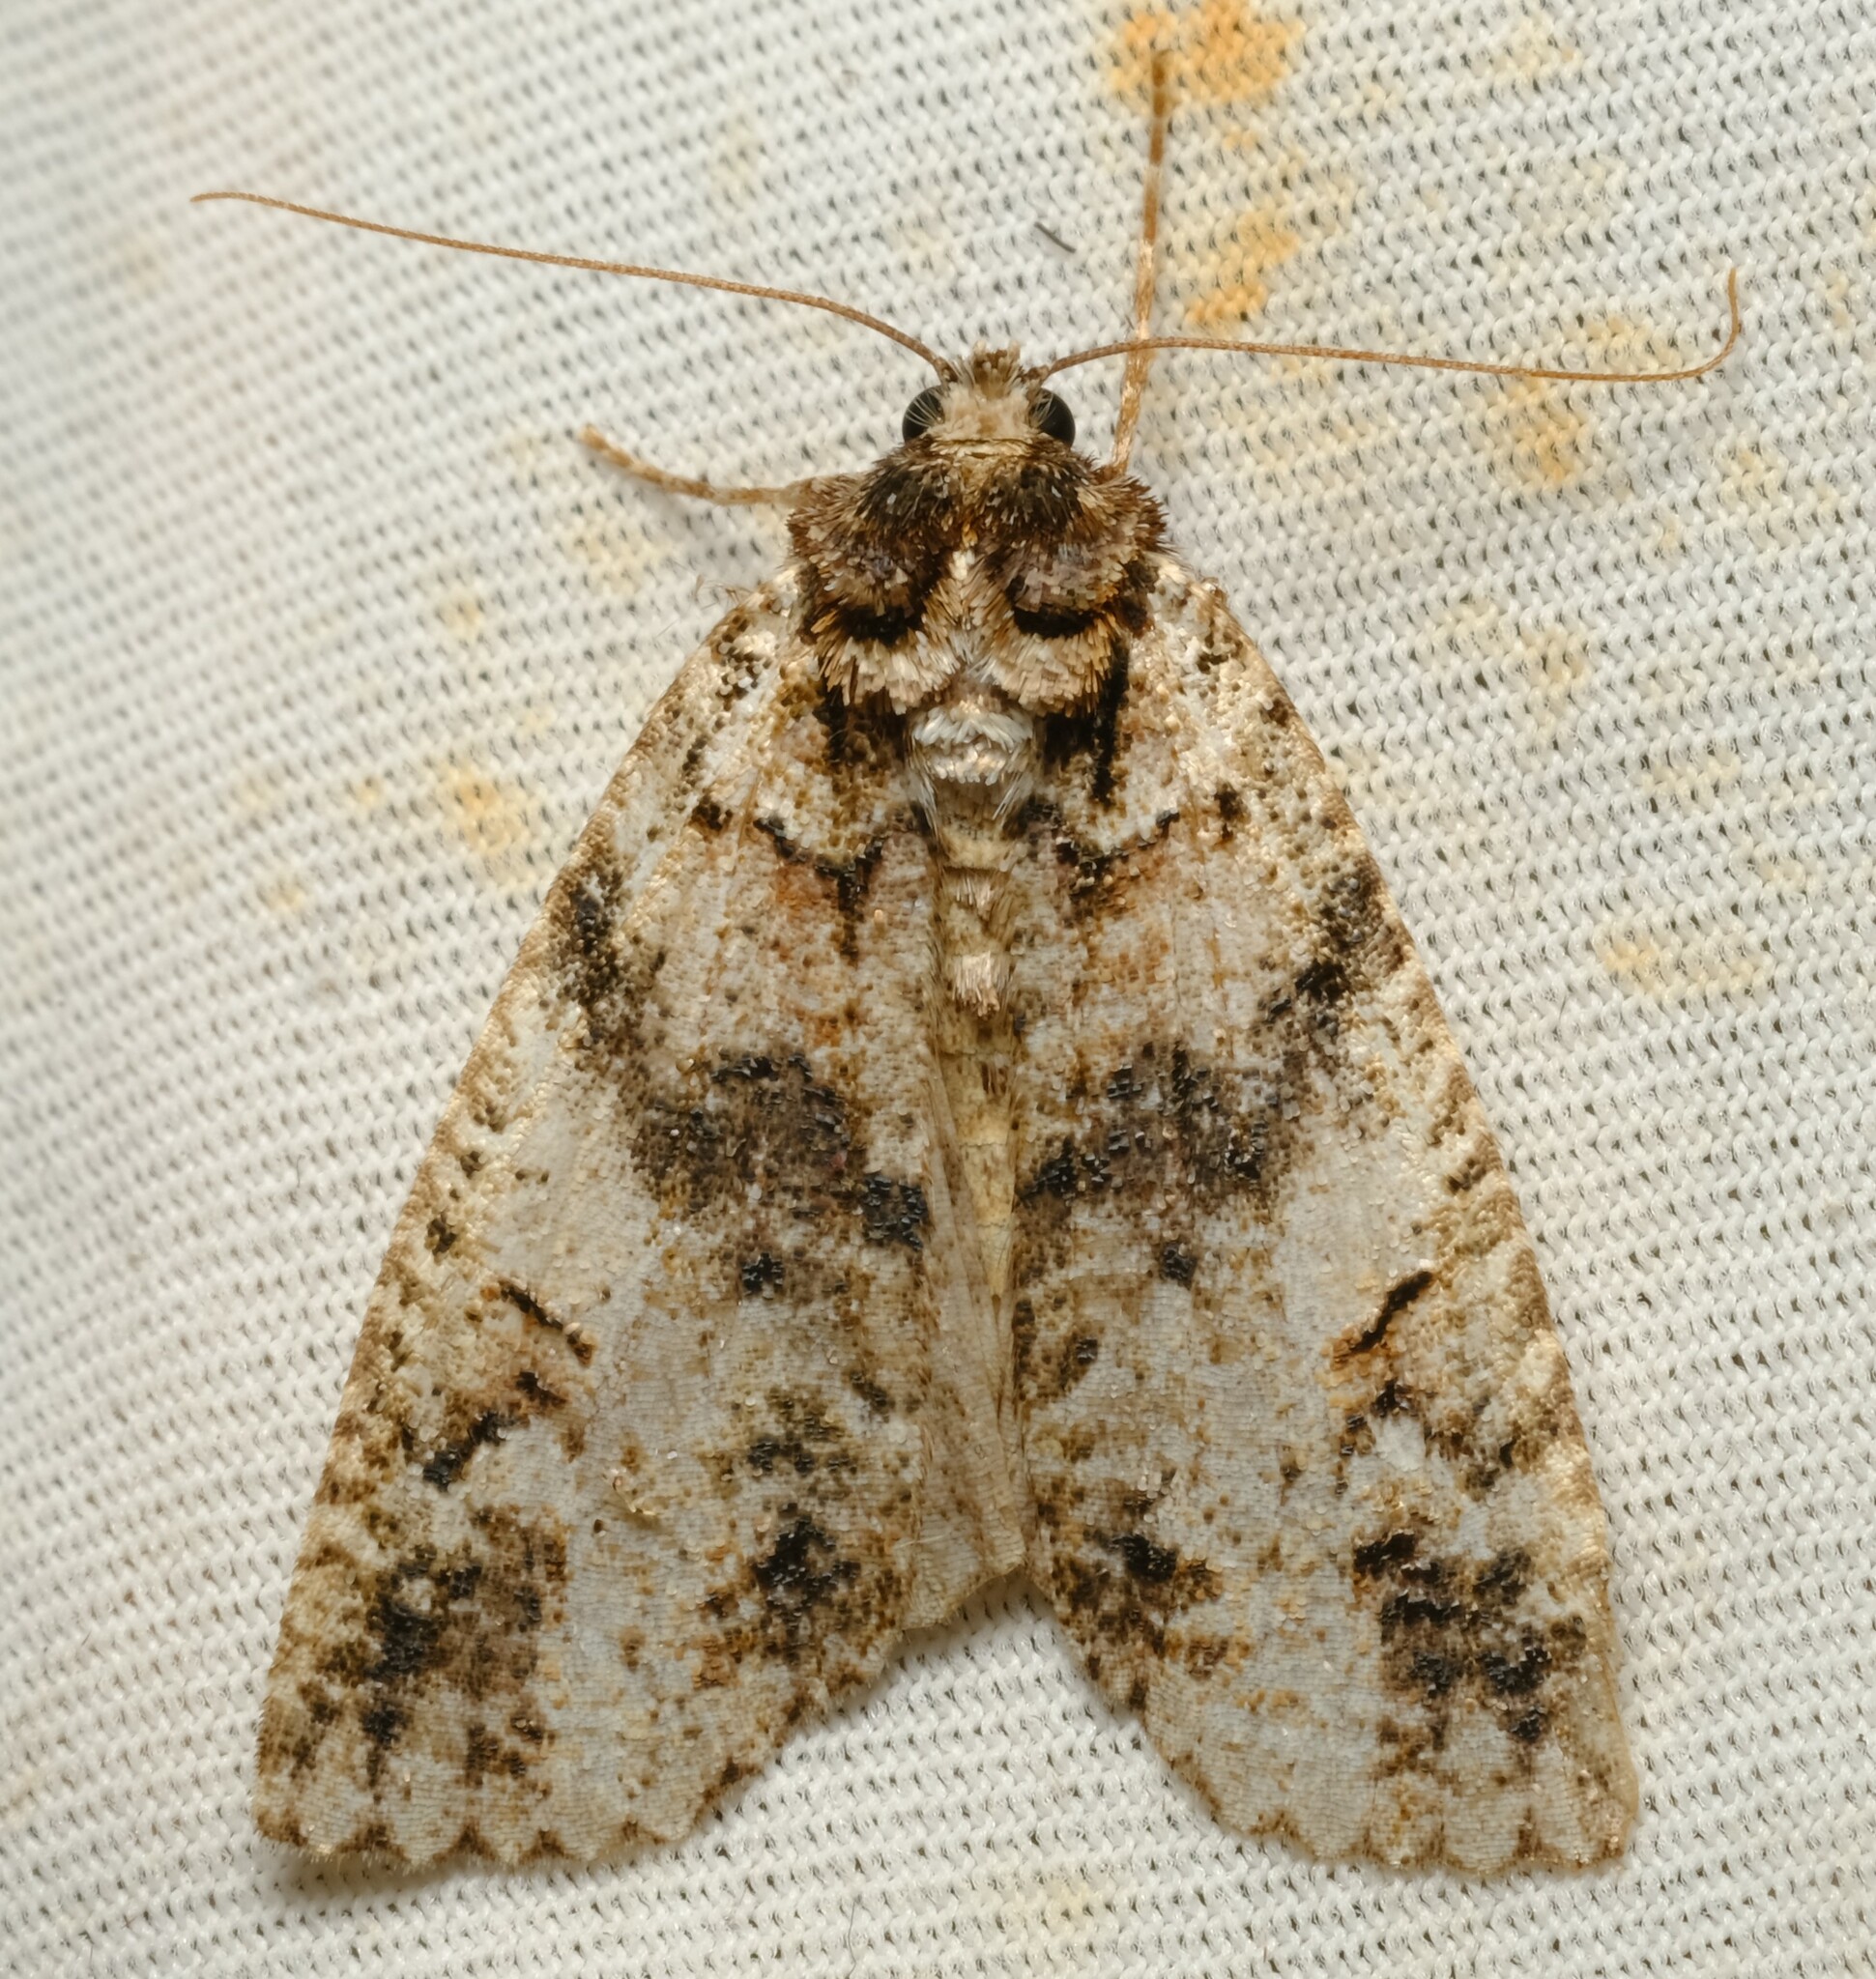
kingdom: Animalia
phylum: Arthropoda
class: Insecta
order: Lepidoptera
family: Geometridae
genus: Chlenias
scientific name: Chlenias ochrocrana
